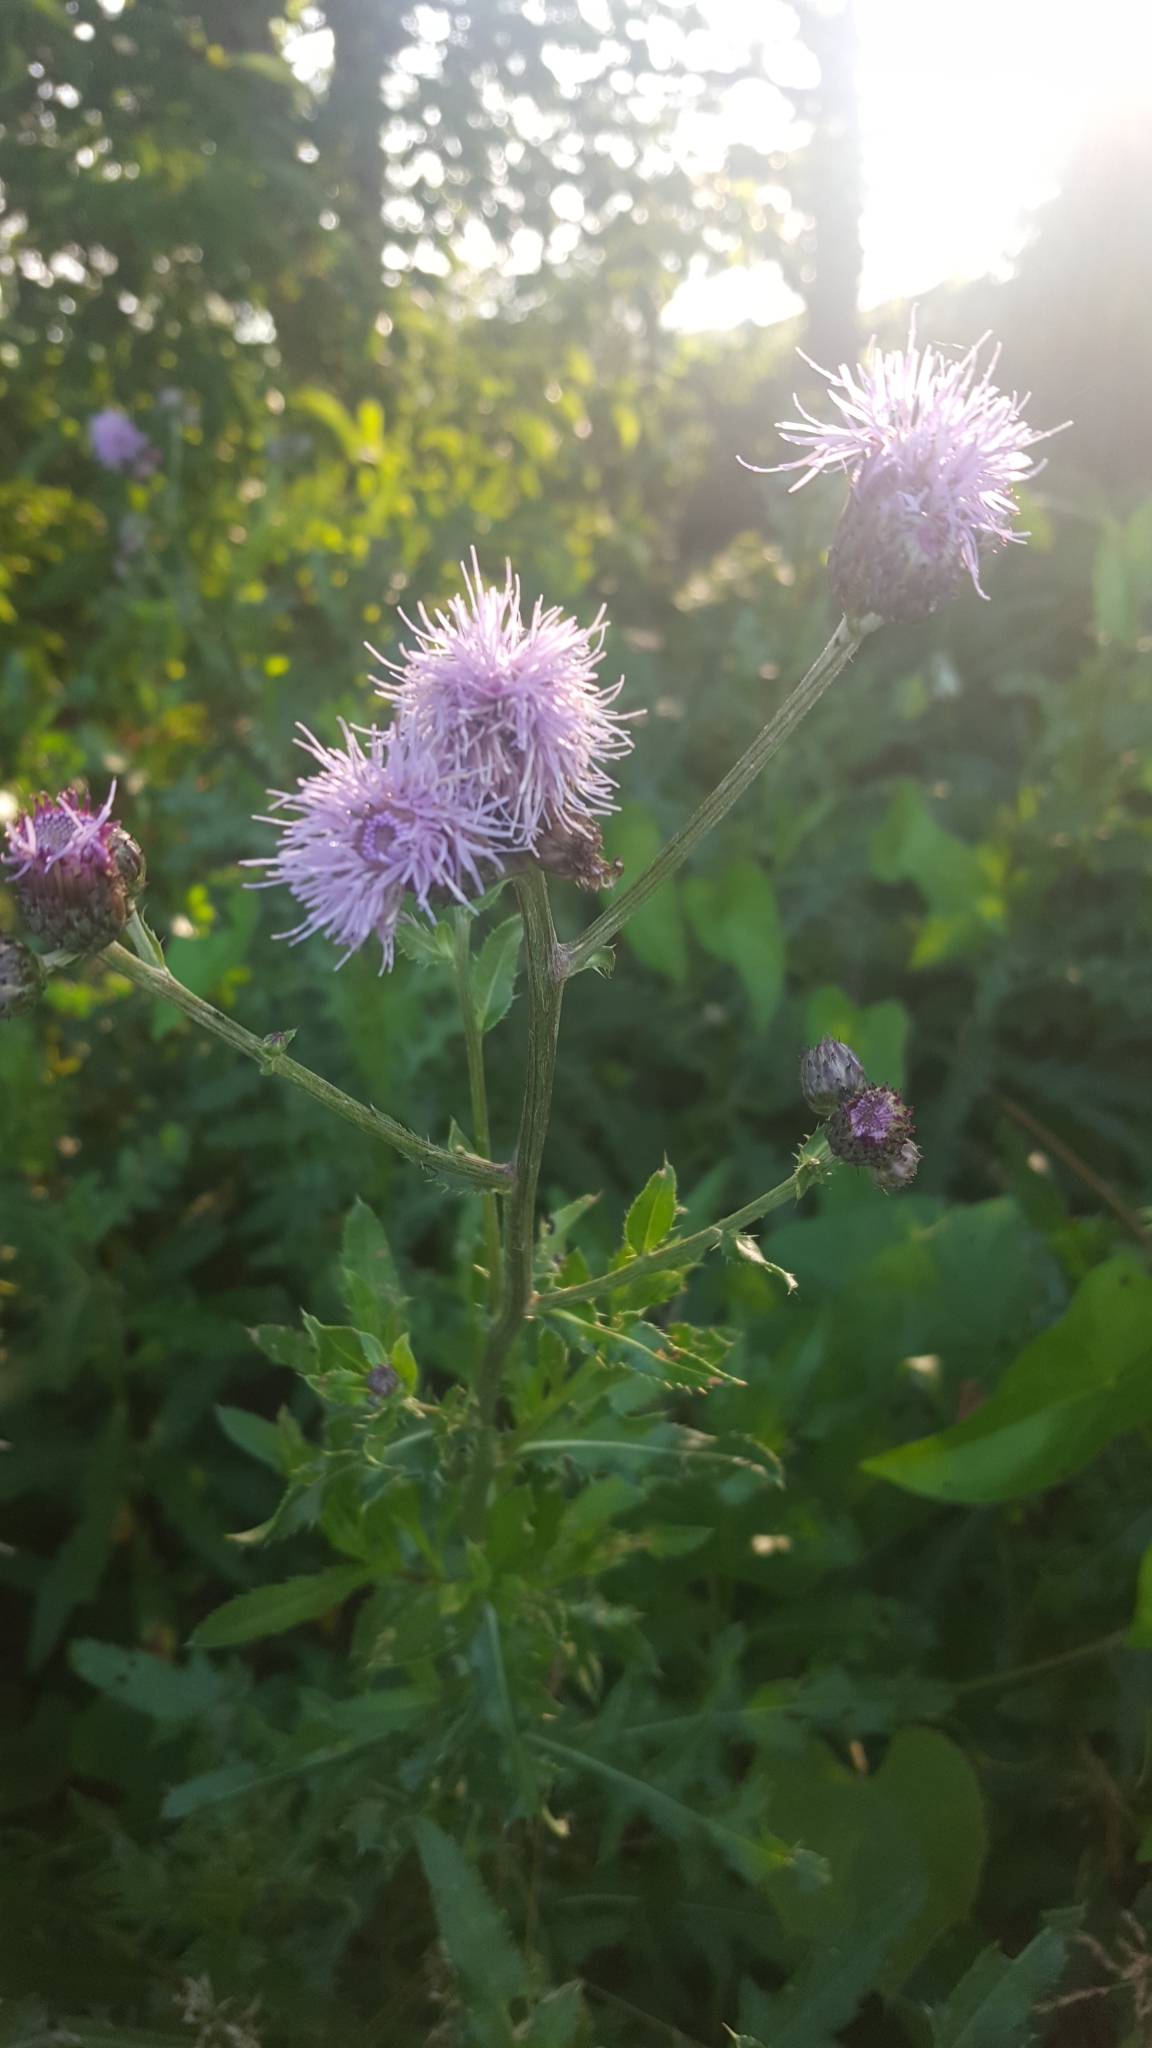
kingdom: Plantae
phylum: Tracheophyta
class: Magnoliopsida
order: Asterales
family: Asteraceae
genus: Cirsium
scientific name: Cirsium arvense
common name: Creeping thistle
